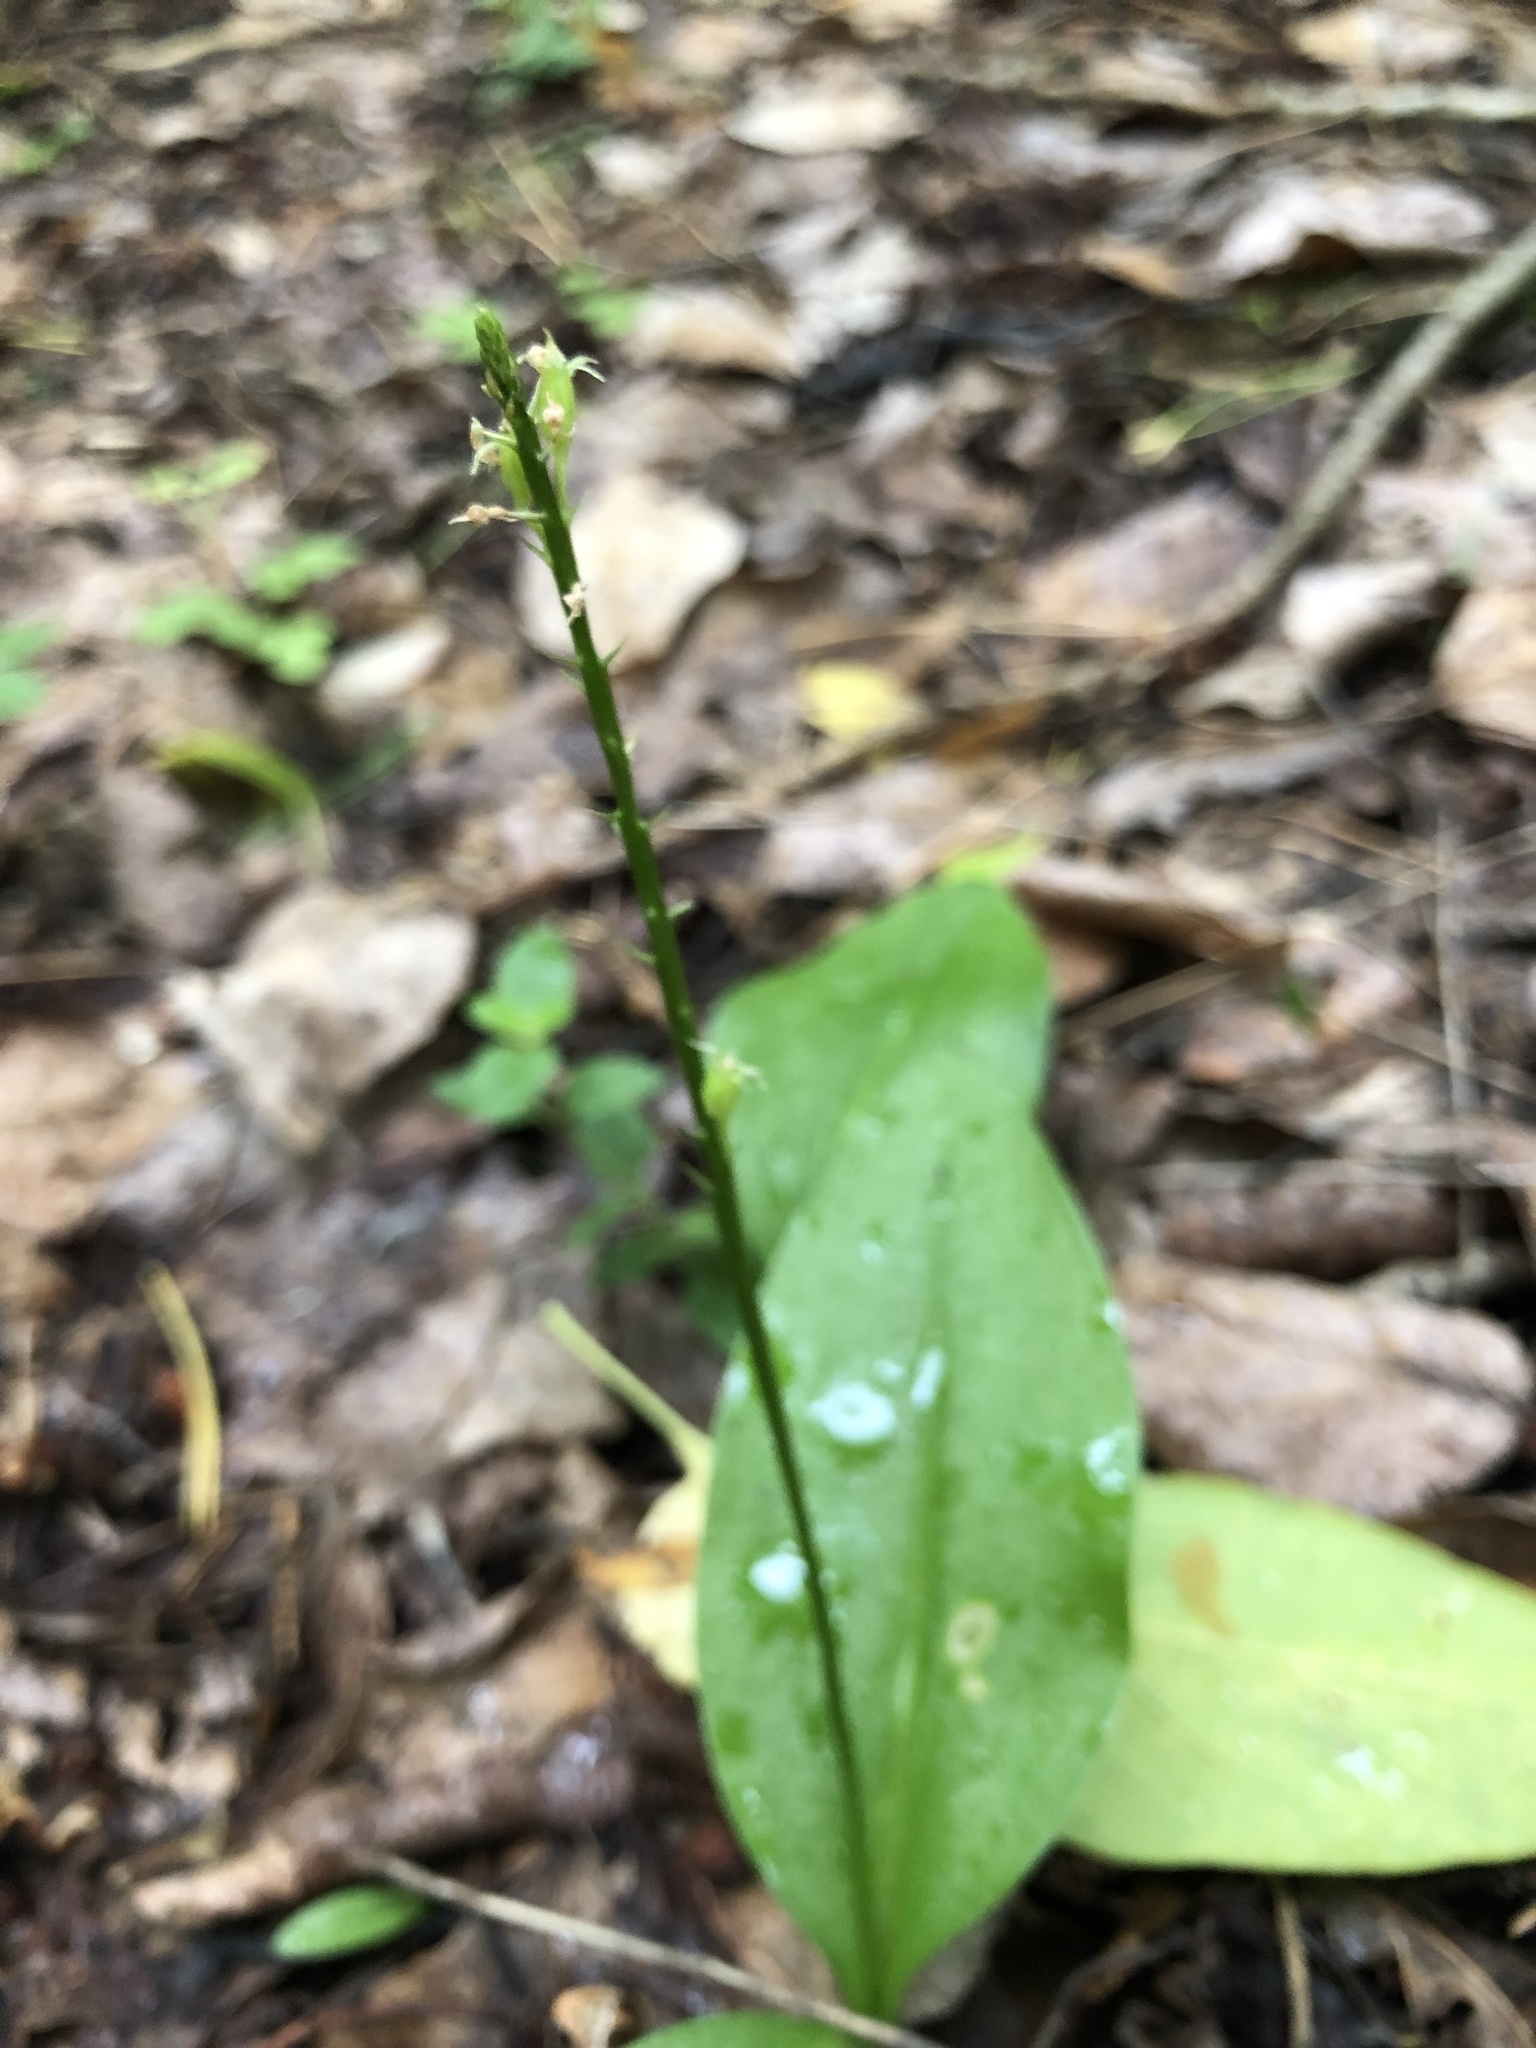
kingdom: Plantae
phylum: Tracheophyta
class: Liliopsida
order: Asparagales
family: Orchidaceae
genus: Malaxis
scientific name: Malaxis monophyllos
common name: White adder's-mouth
